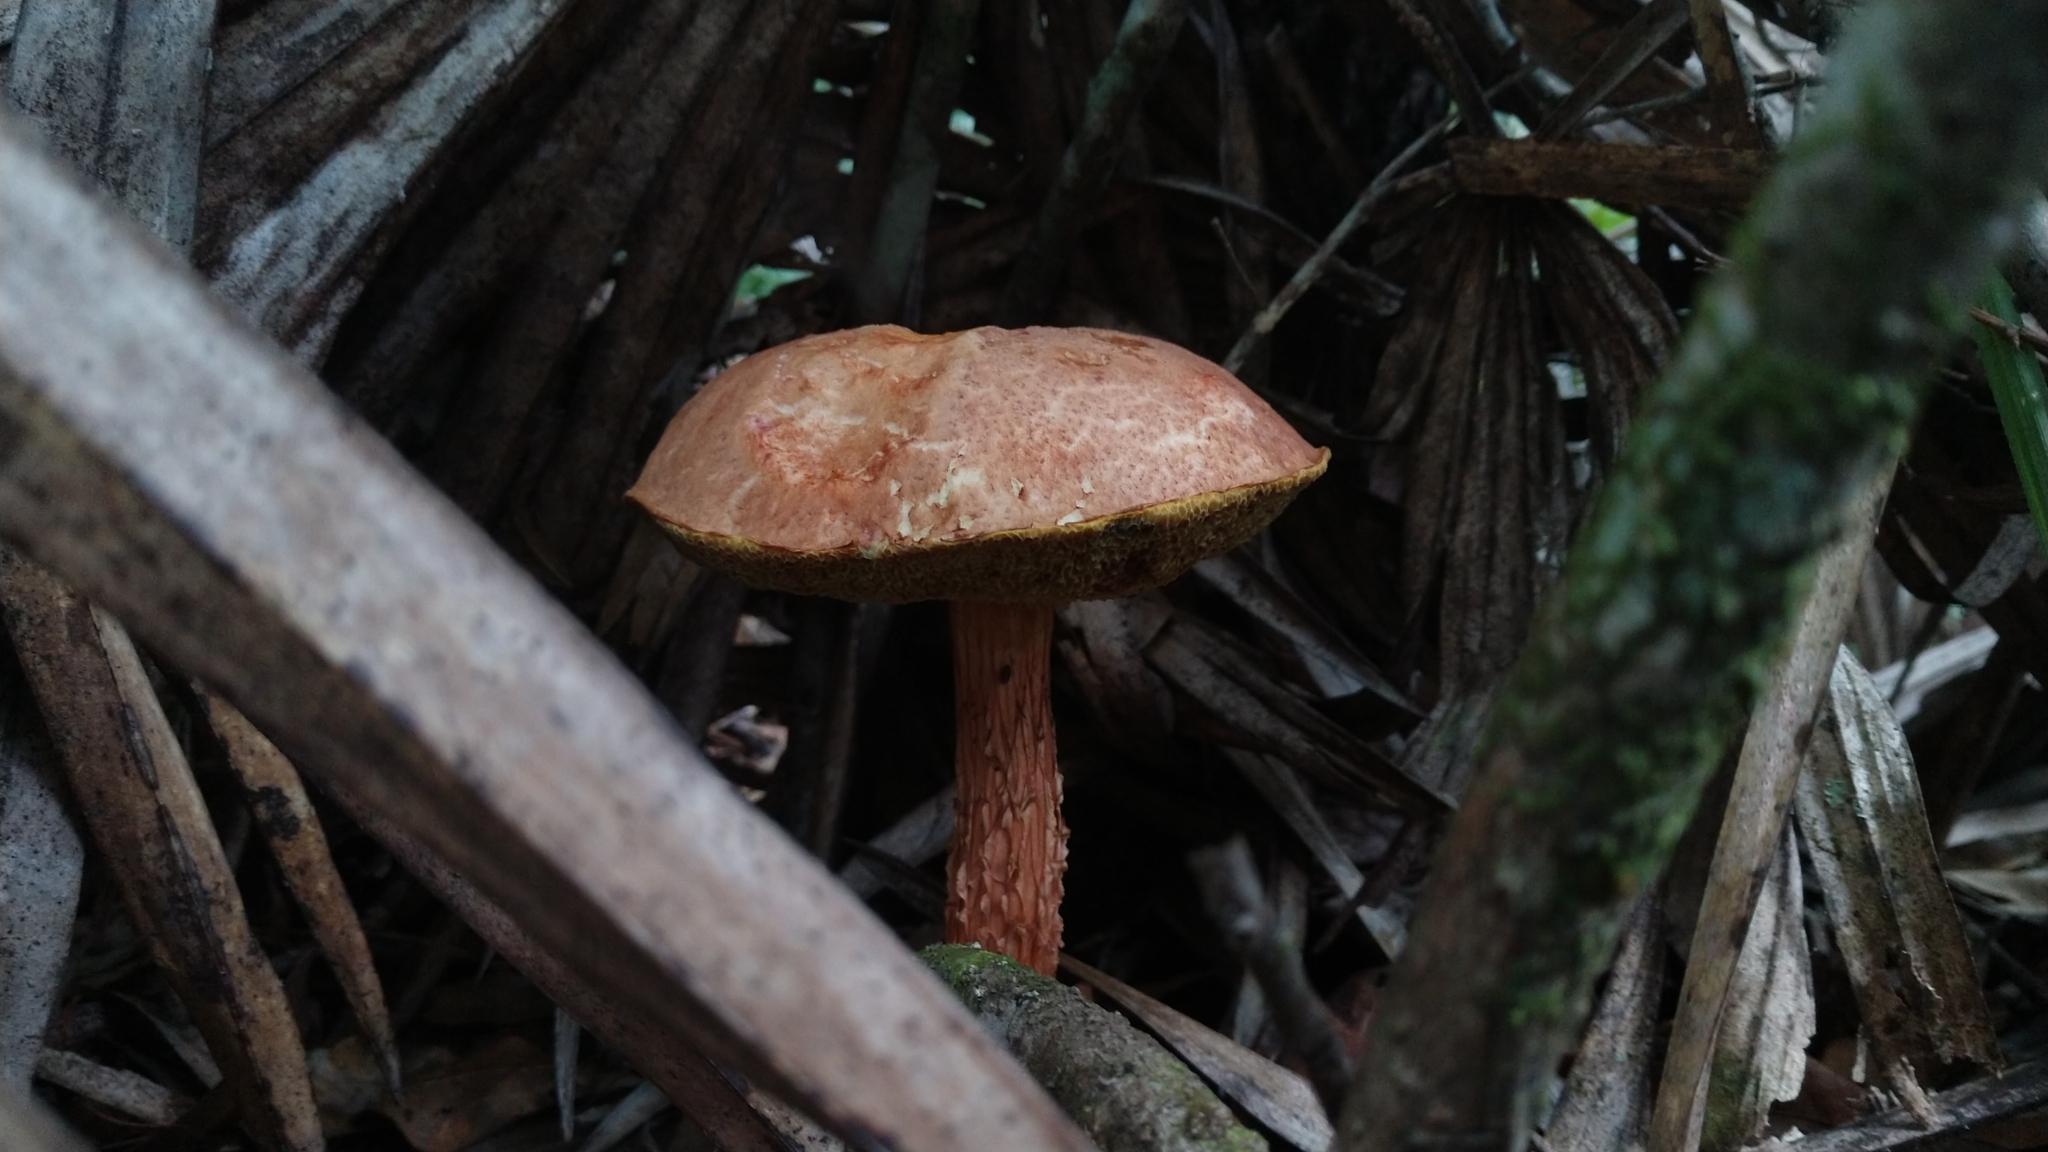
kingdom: Fungi
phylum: Basidiomycota
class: Agaricomycetes
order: Boletales
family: Boletaceae
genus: Aureoboletus
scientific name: Aureoboletus russellii
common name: Russell's bolete
